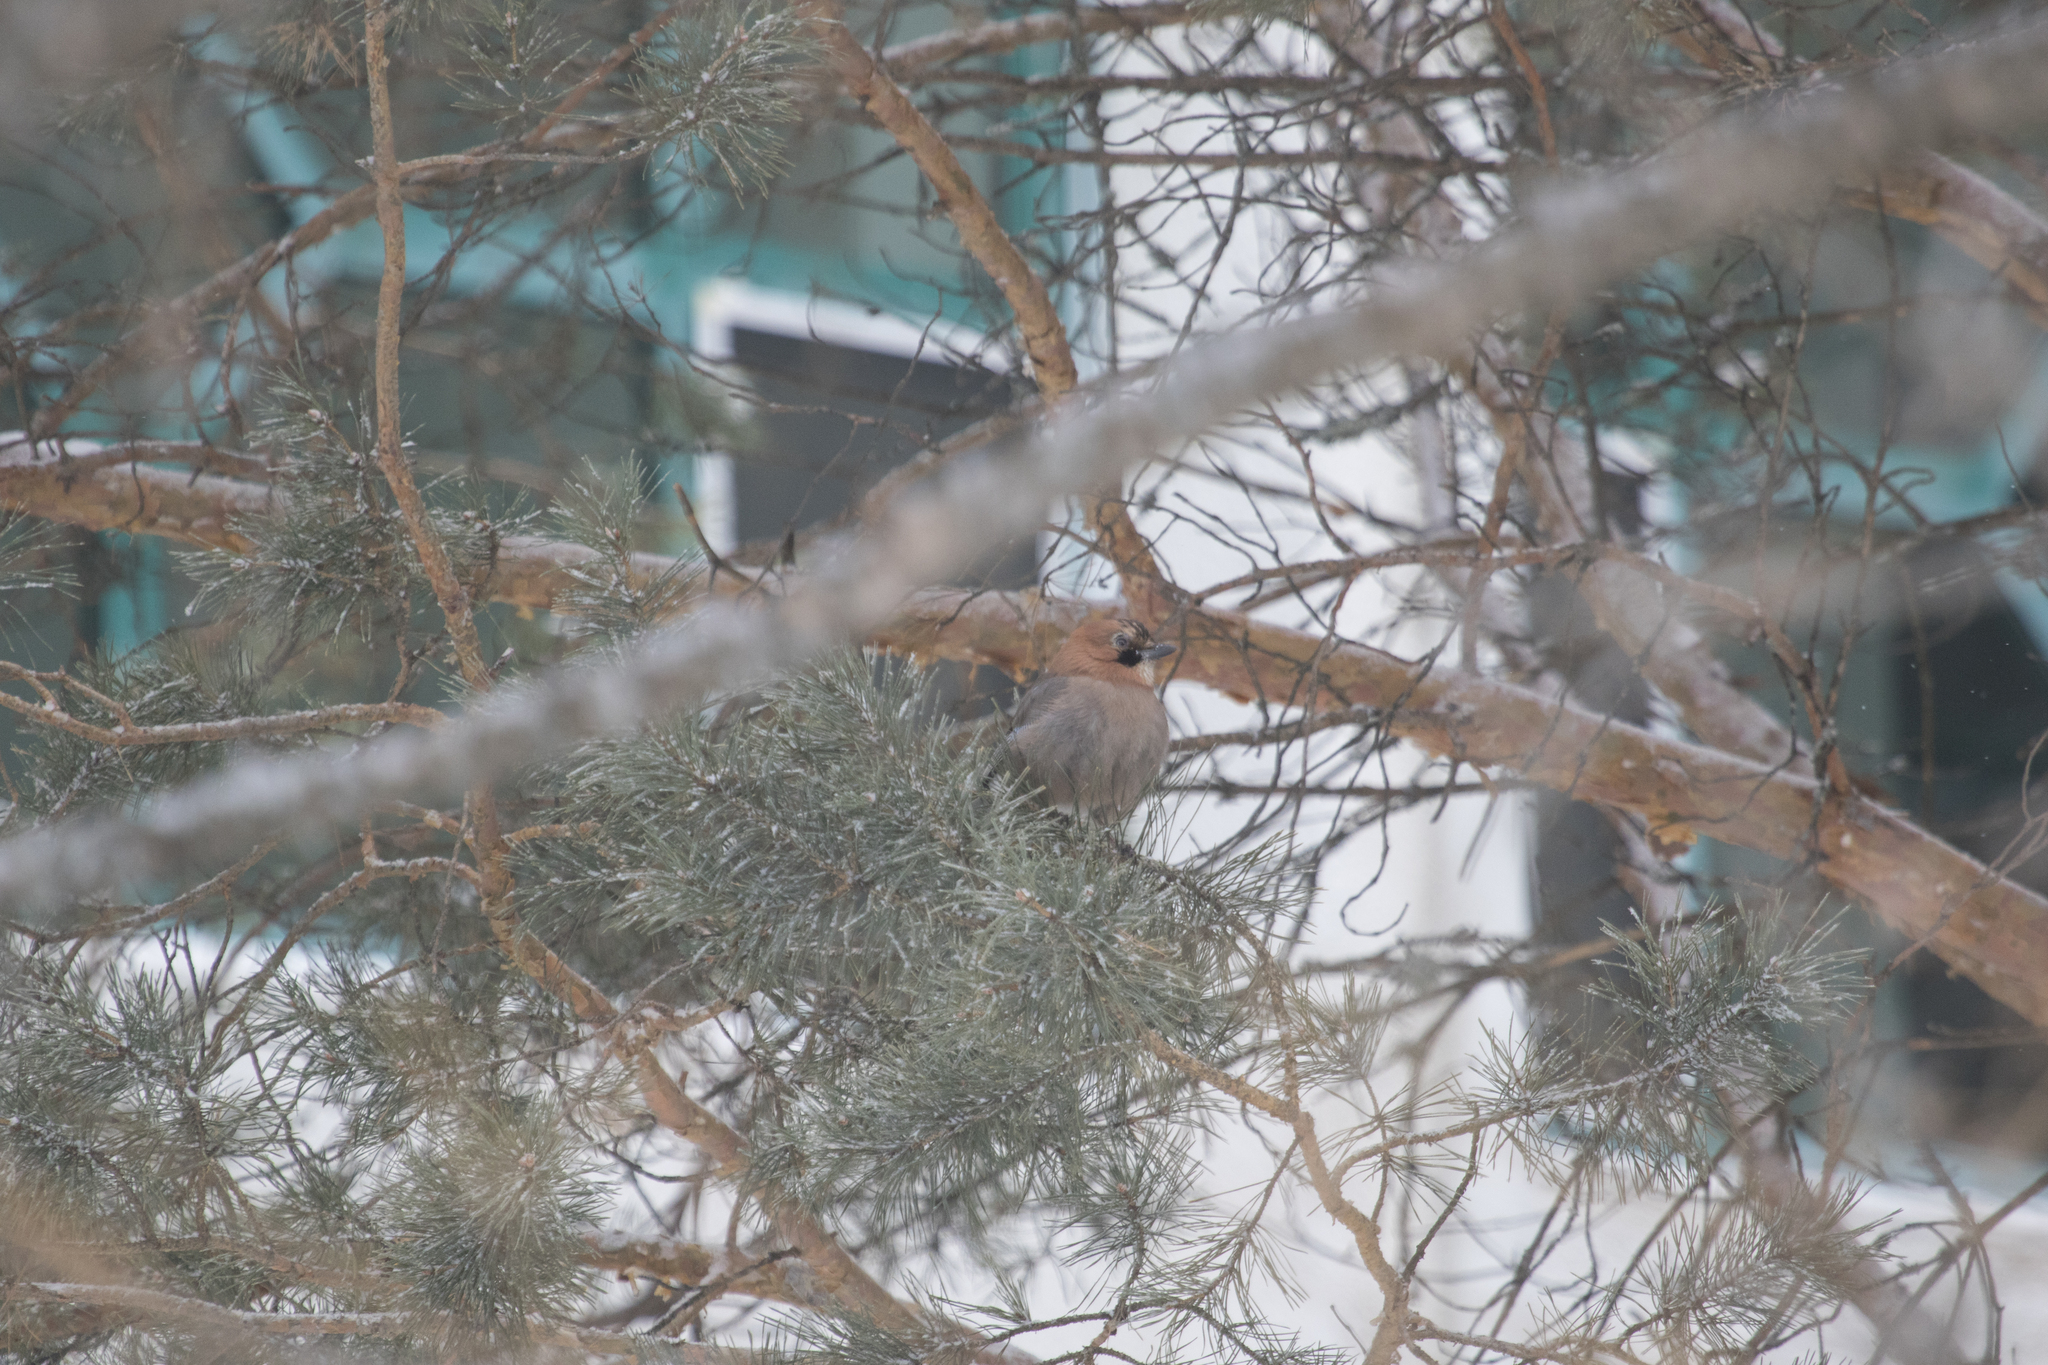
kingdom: Animalia
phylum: Chordata
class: Aves
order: Passeriformes
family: Corvidae
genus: Garrulus
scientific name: Garrulus glandarius
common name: Eurasian jay
